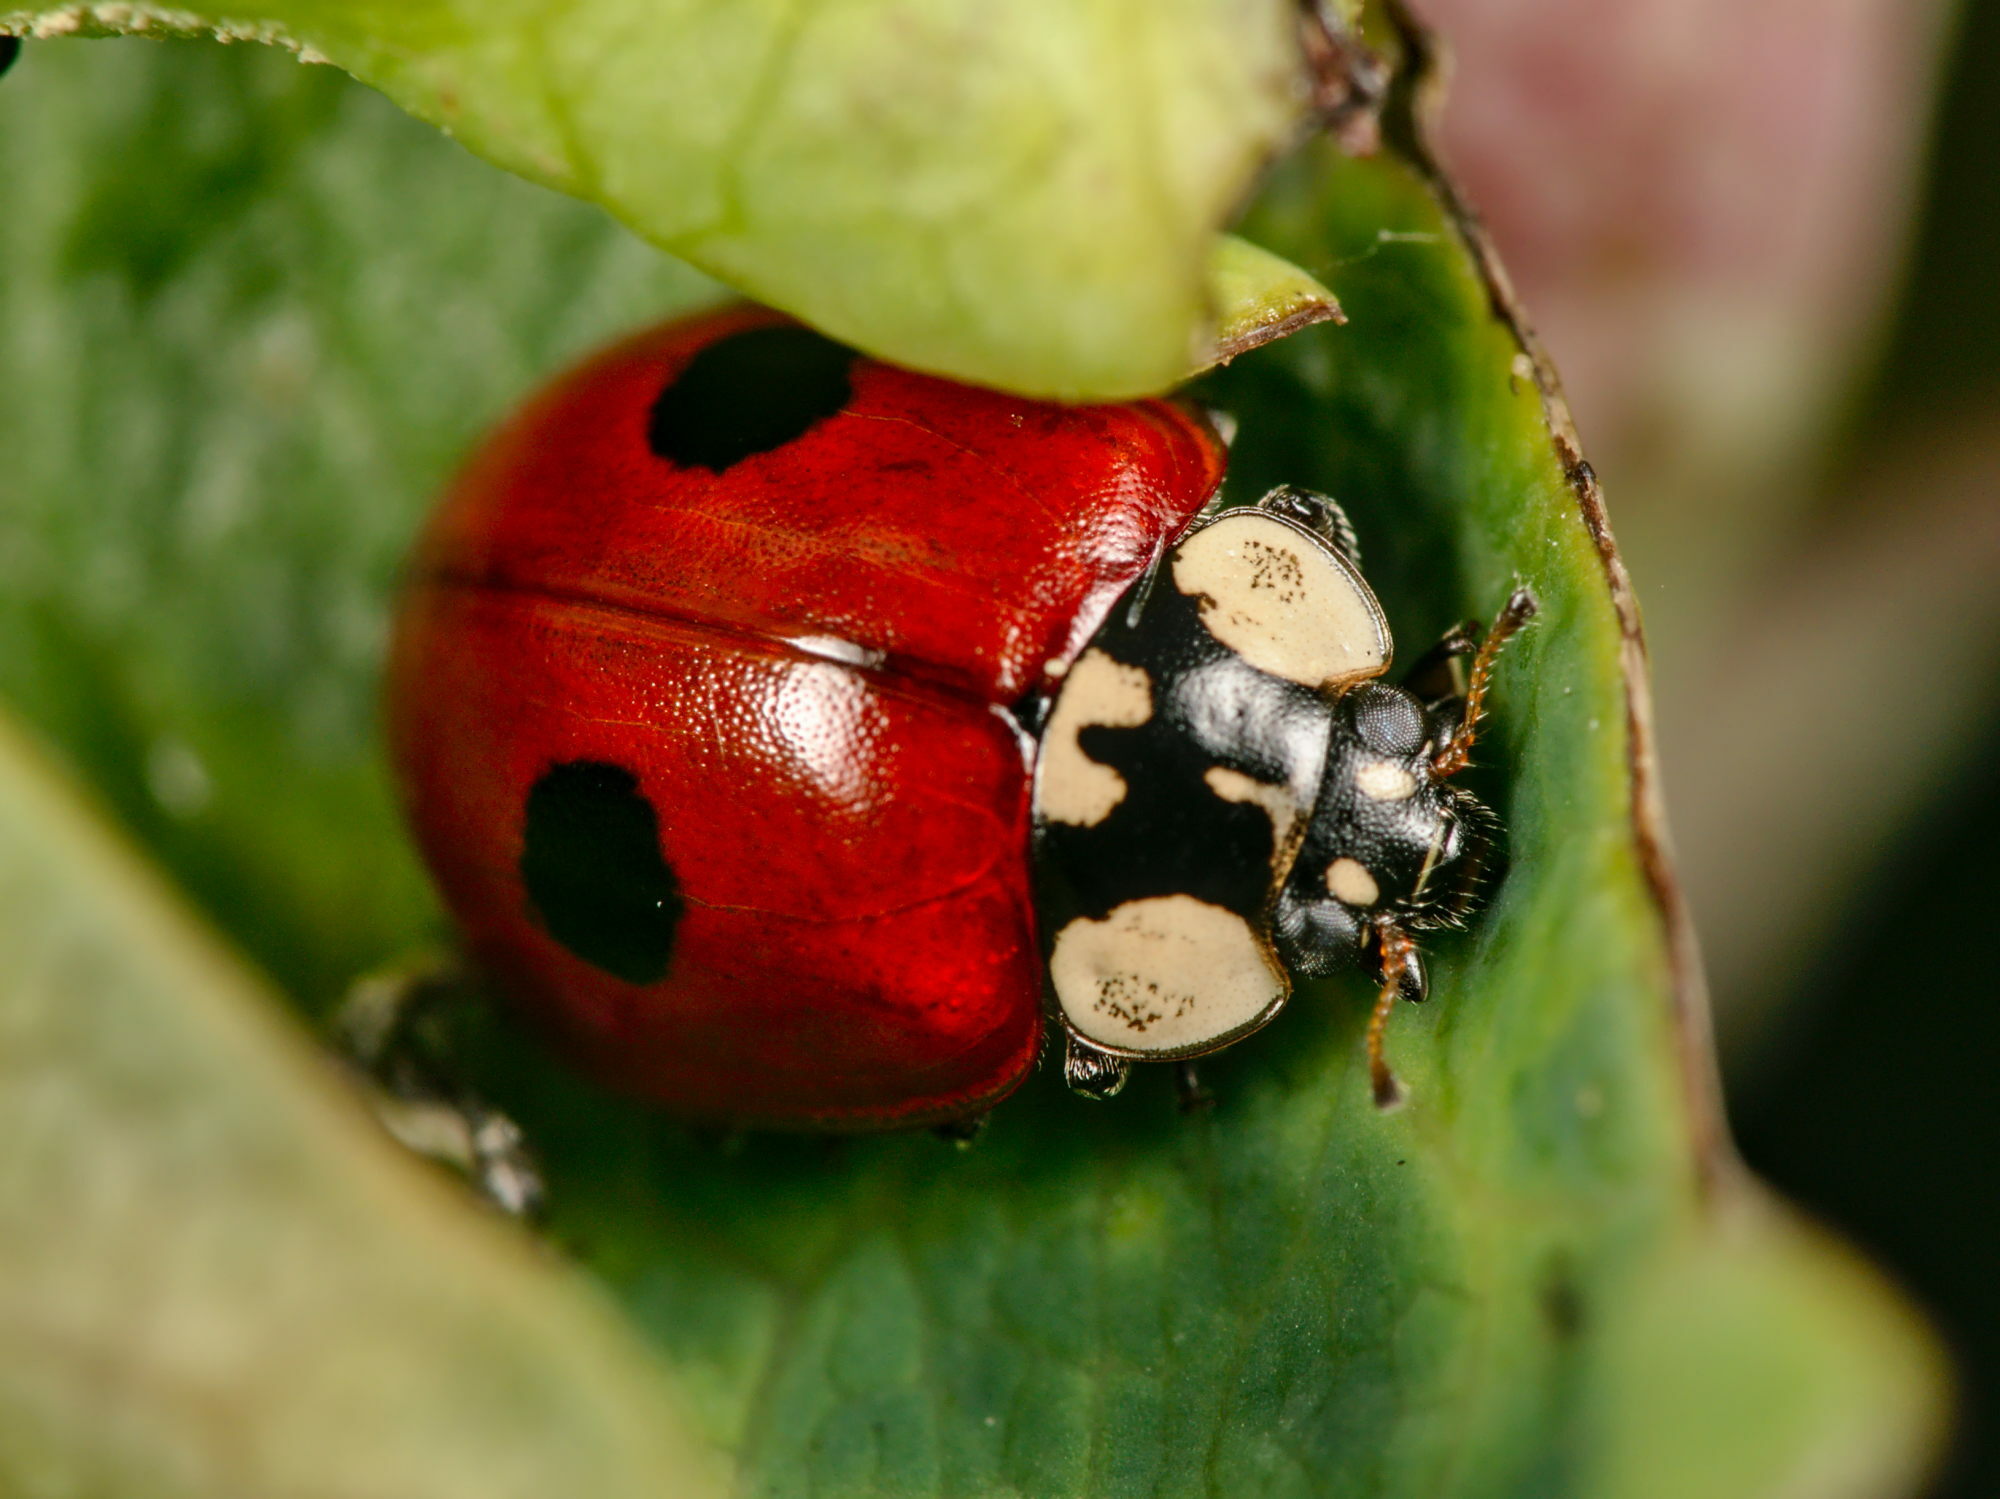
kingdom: Animalia
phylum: Arthropoda
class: Insecta
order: Coleoptera
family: Coccinellidae
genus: Adalia
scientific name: Adalia bipunctata
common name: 2-spot ladybird
